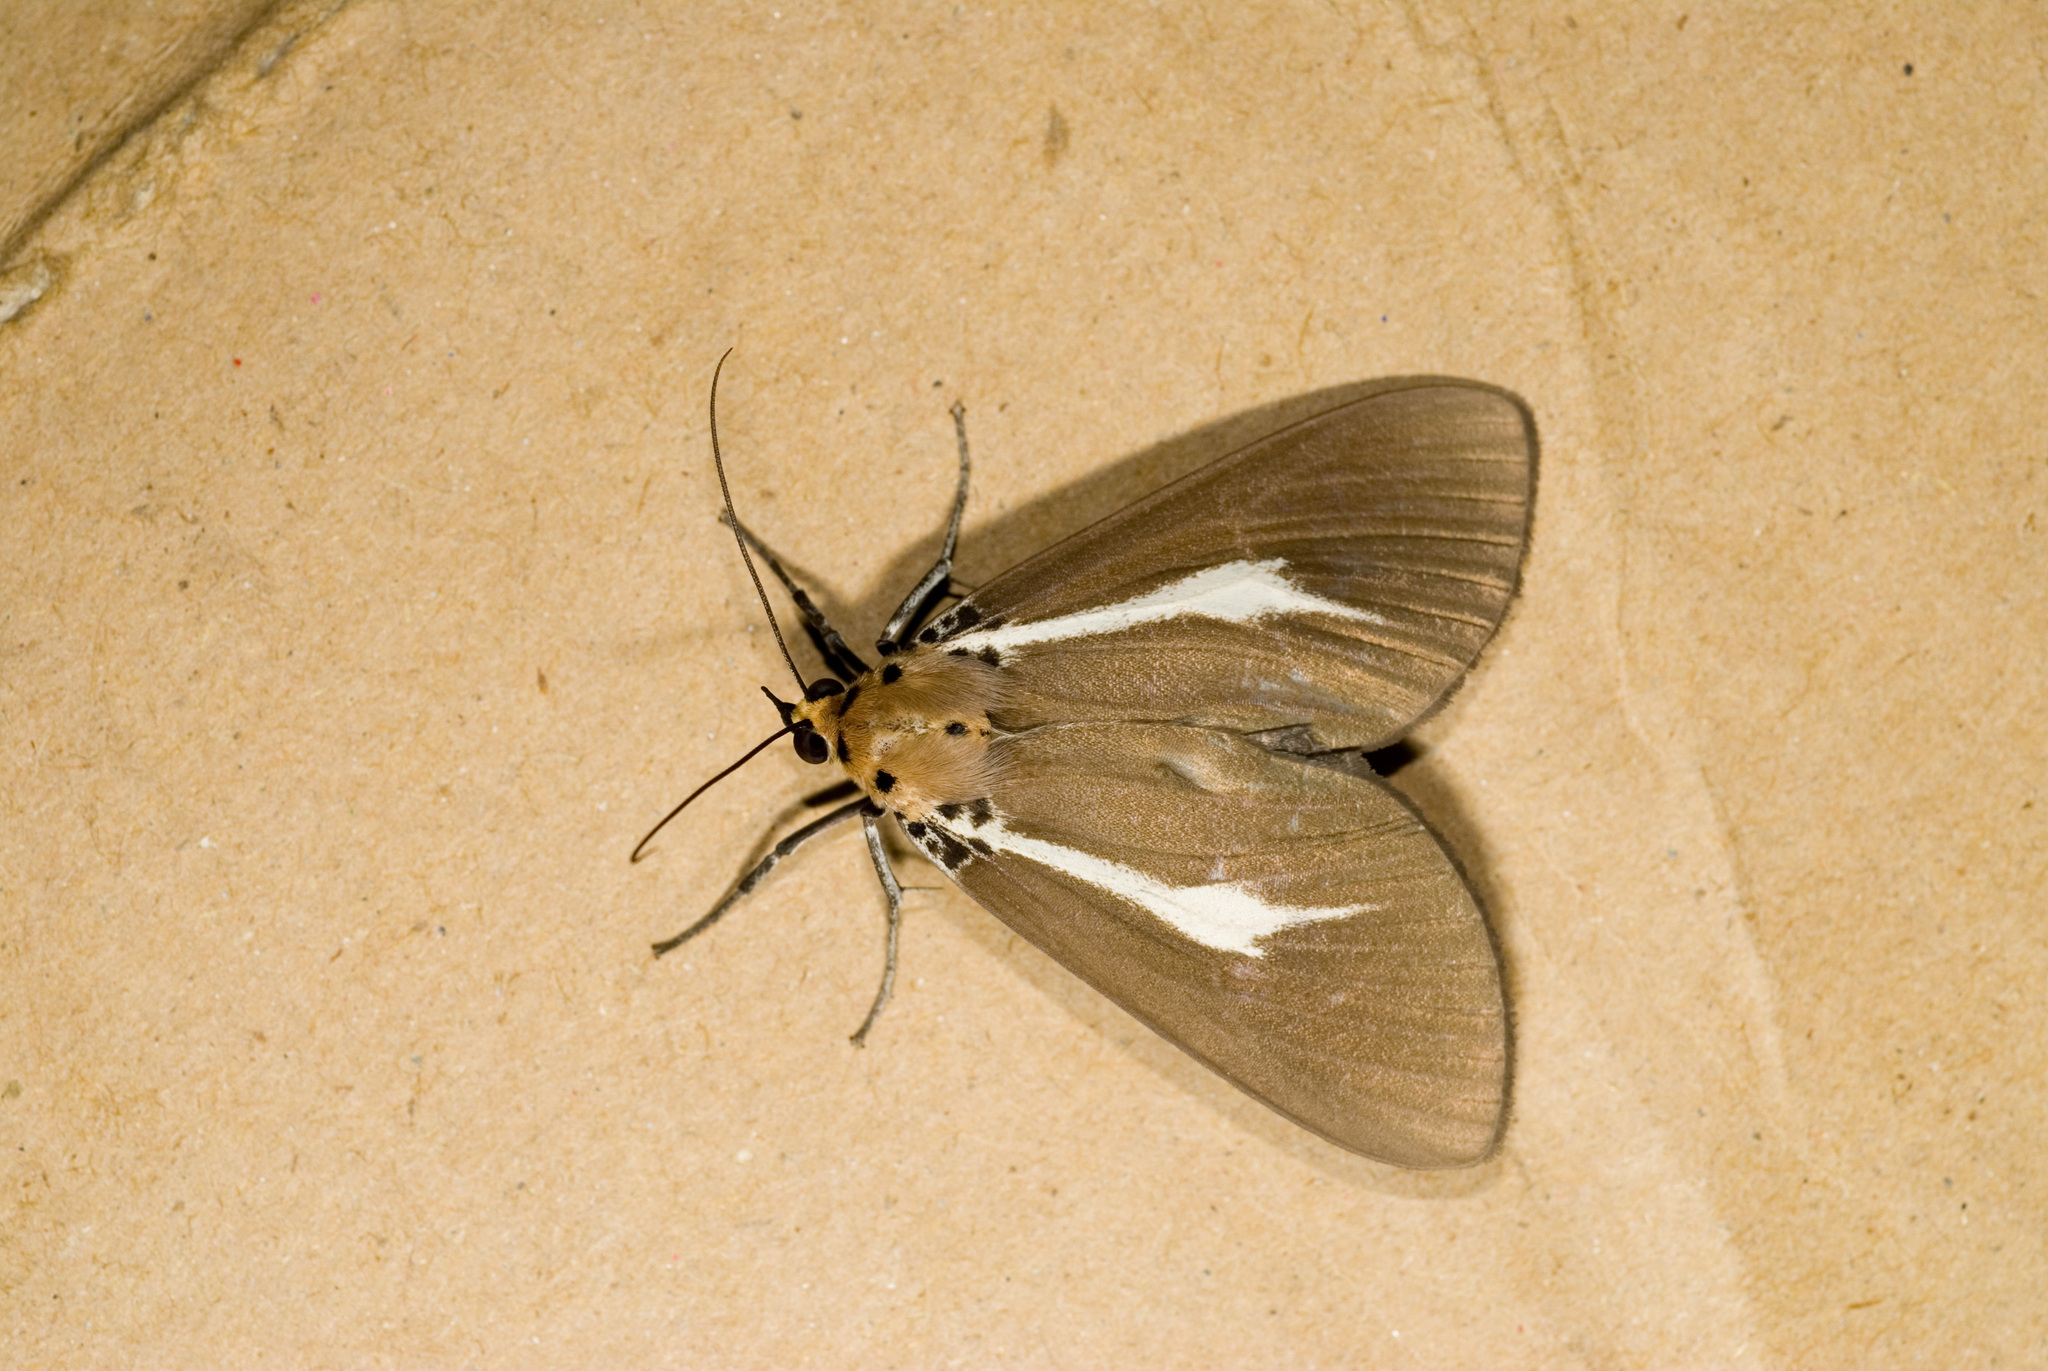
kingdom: Animalia
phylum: Arthropoda
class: Insecta
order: Lepidoptera
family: Erebidae
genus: Asota
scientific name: Asota heliconia
